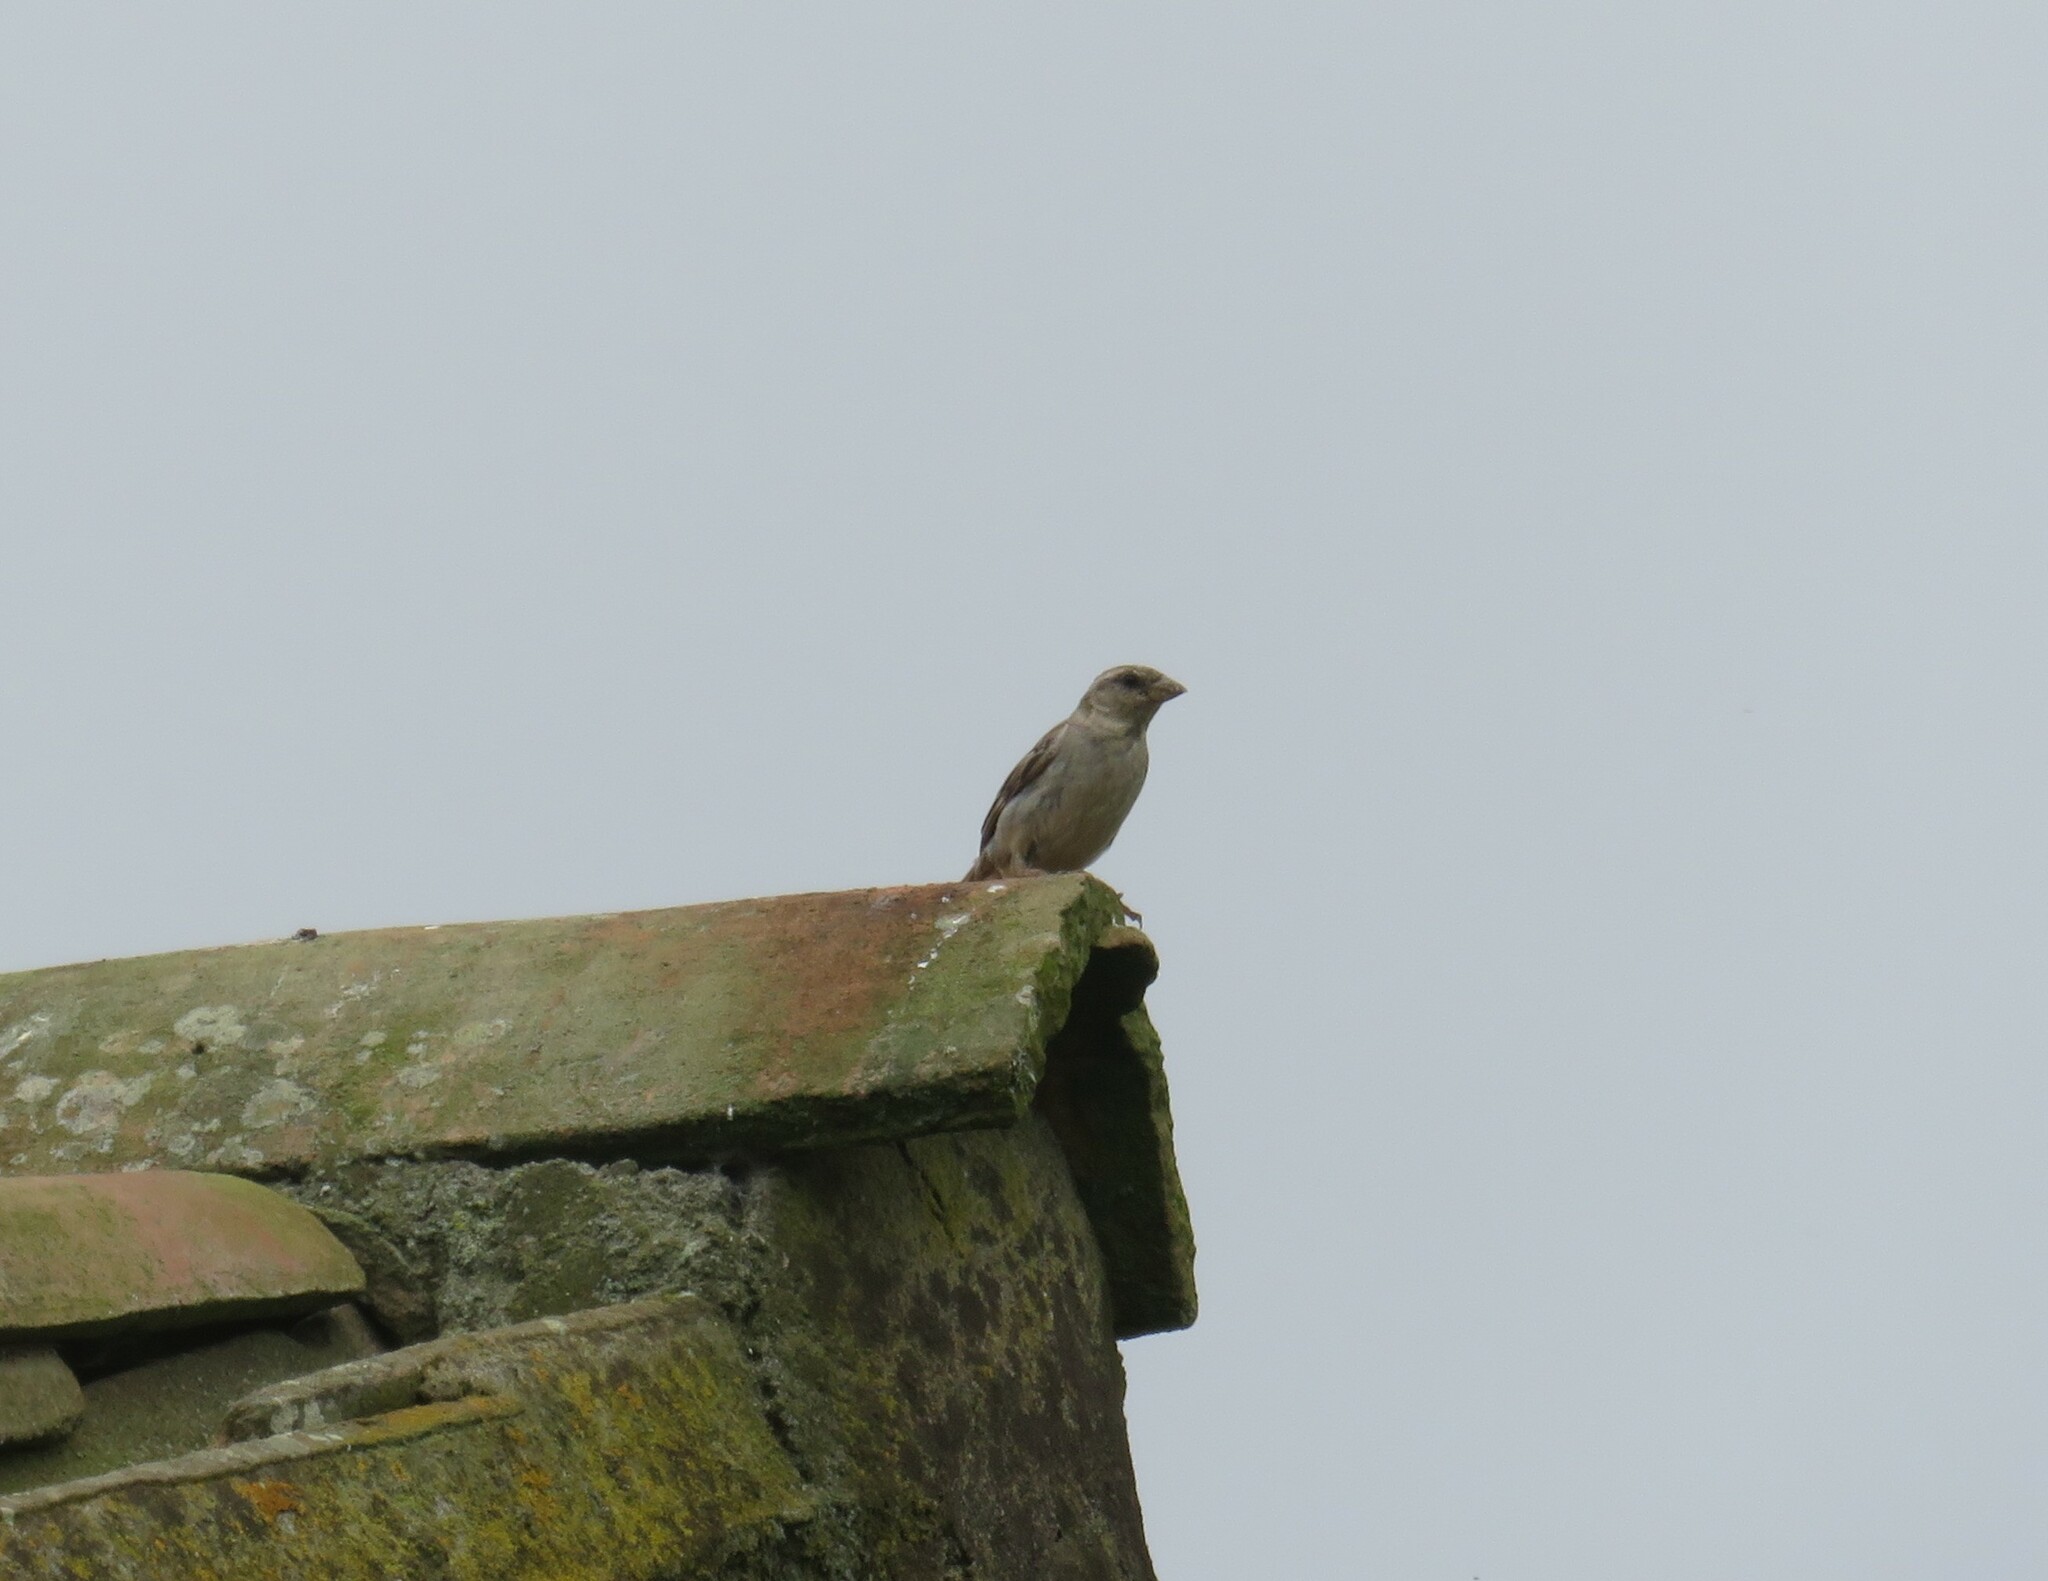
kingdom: Animalia
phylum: Chordata
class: Aves
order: Passeriformes
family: Passeridae
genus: Passer
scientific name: Passer domesticus
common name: House sparrow
